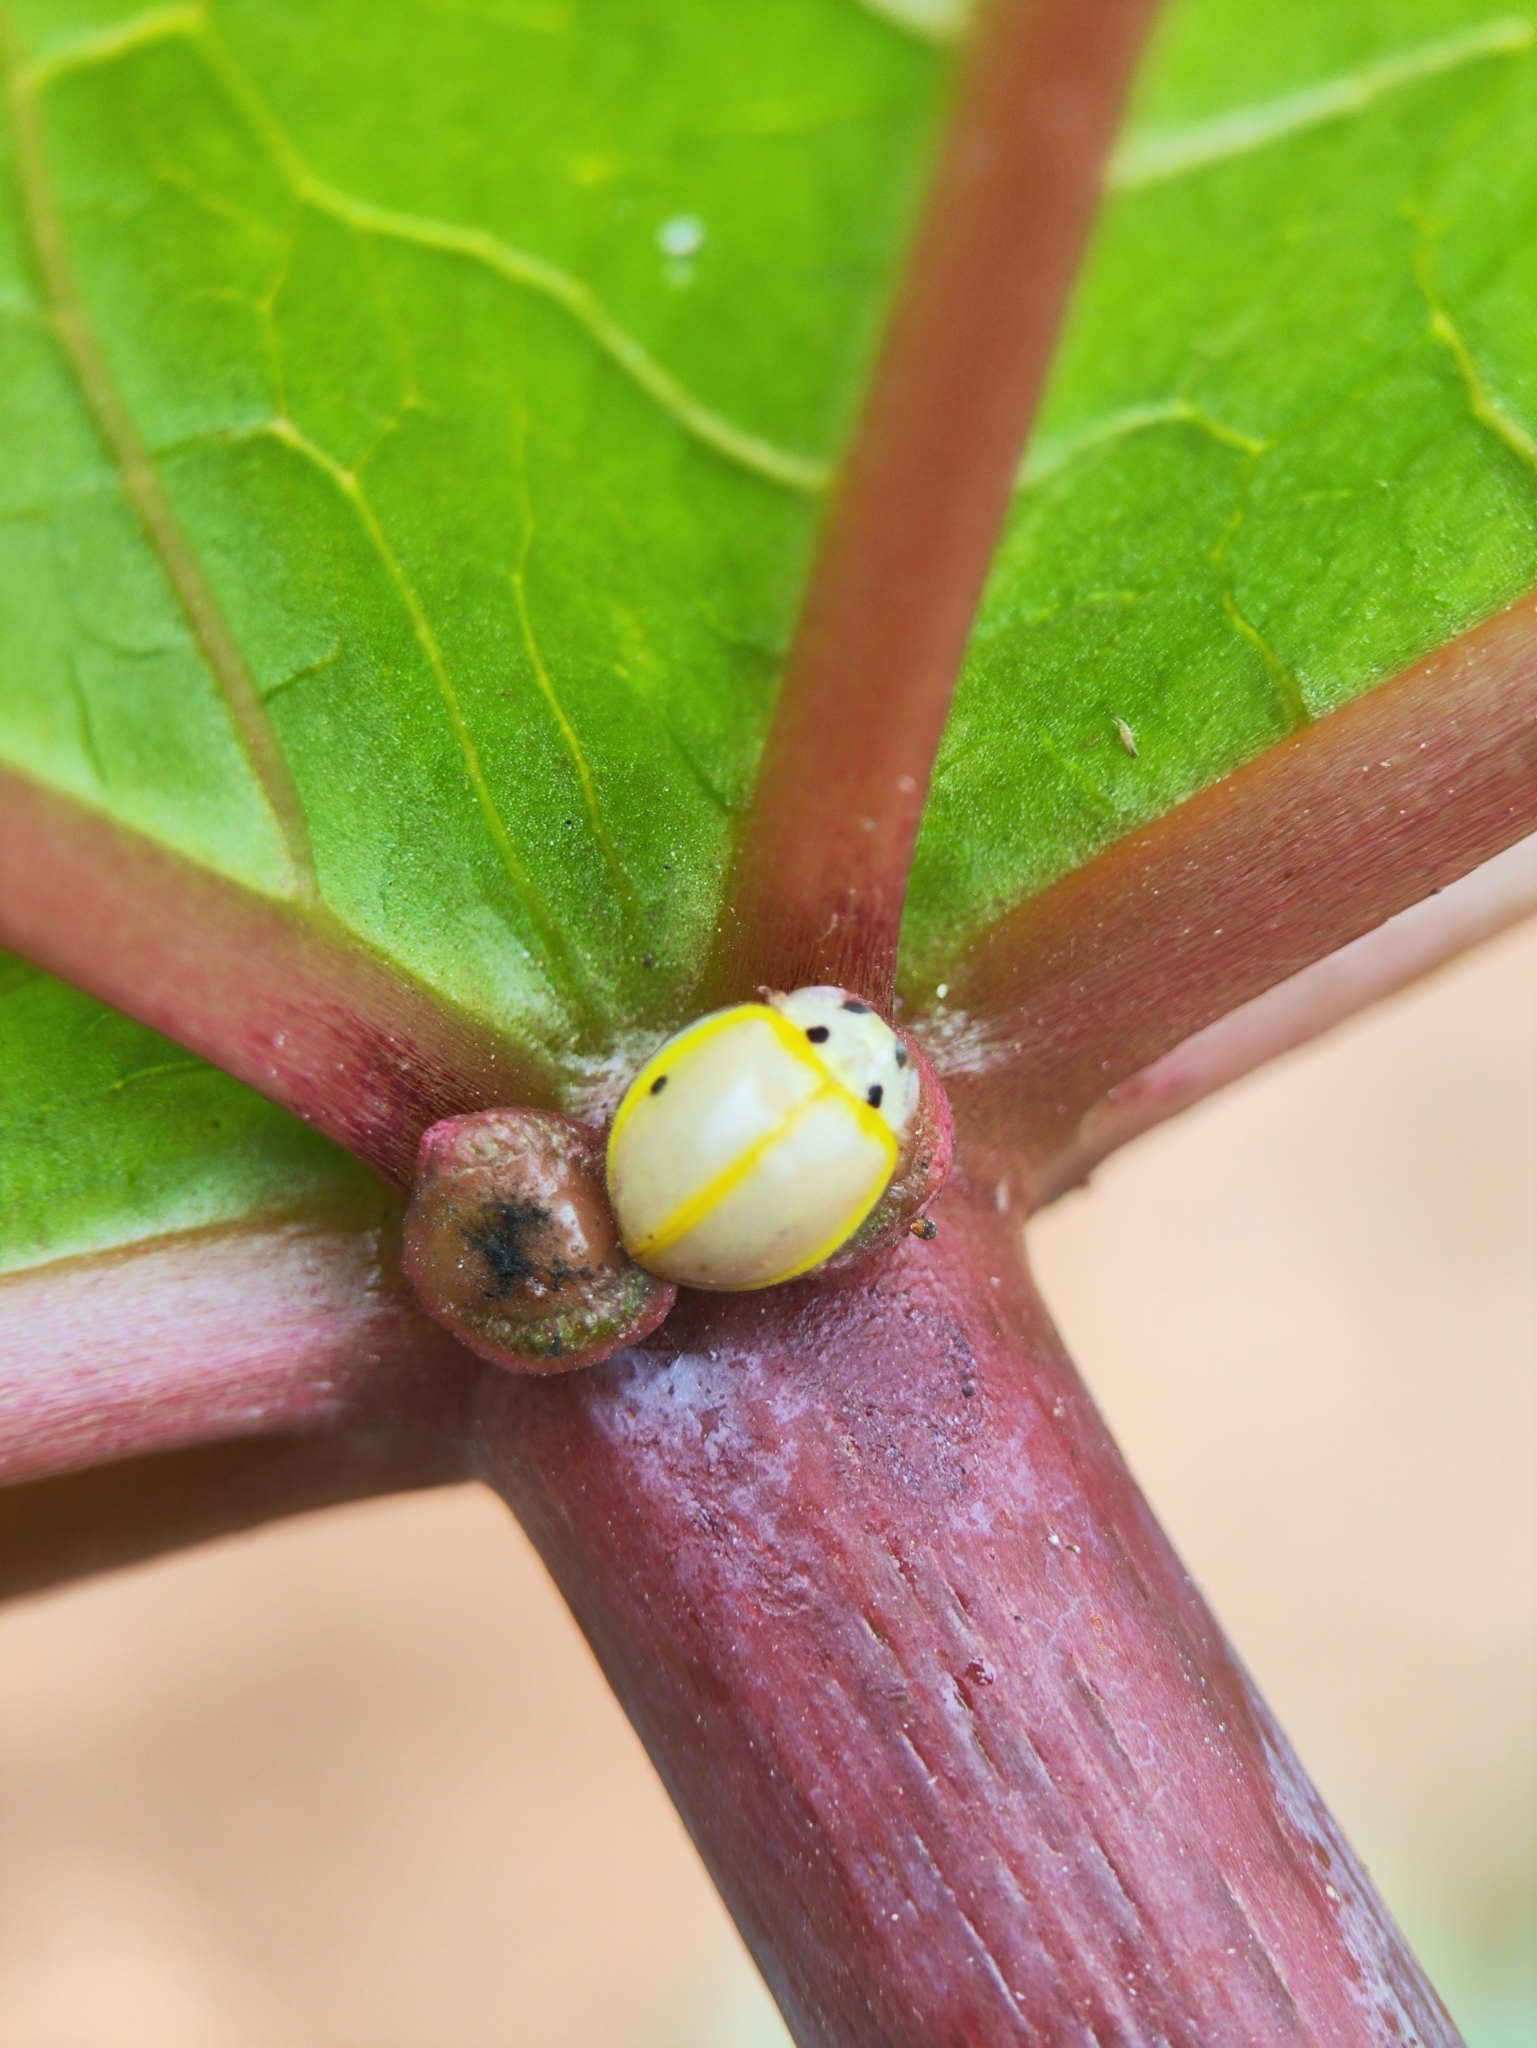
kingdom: Animalia
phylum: Arthropoda
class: Insecta
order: Coleoptera
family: Coccinellidae
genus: Illeis
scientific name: Illeis cincta
